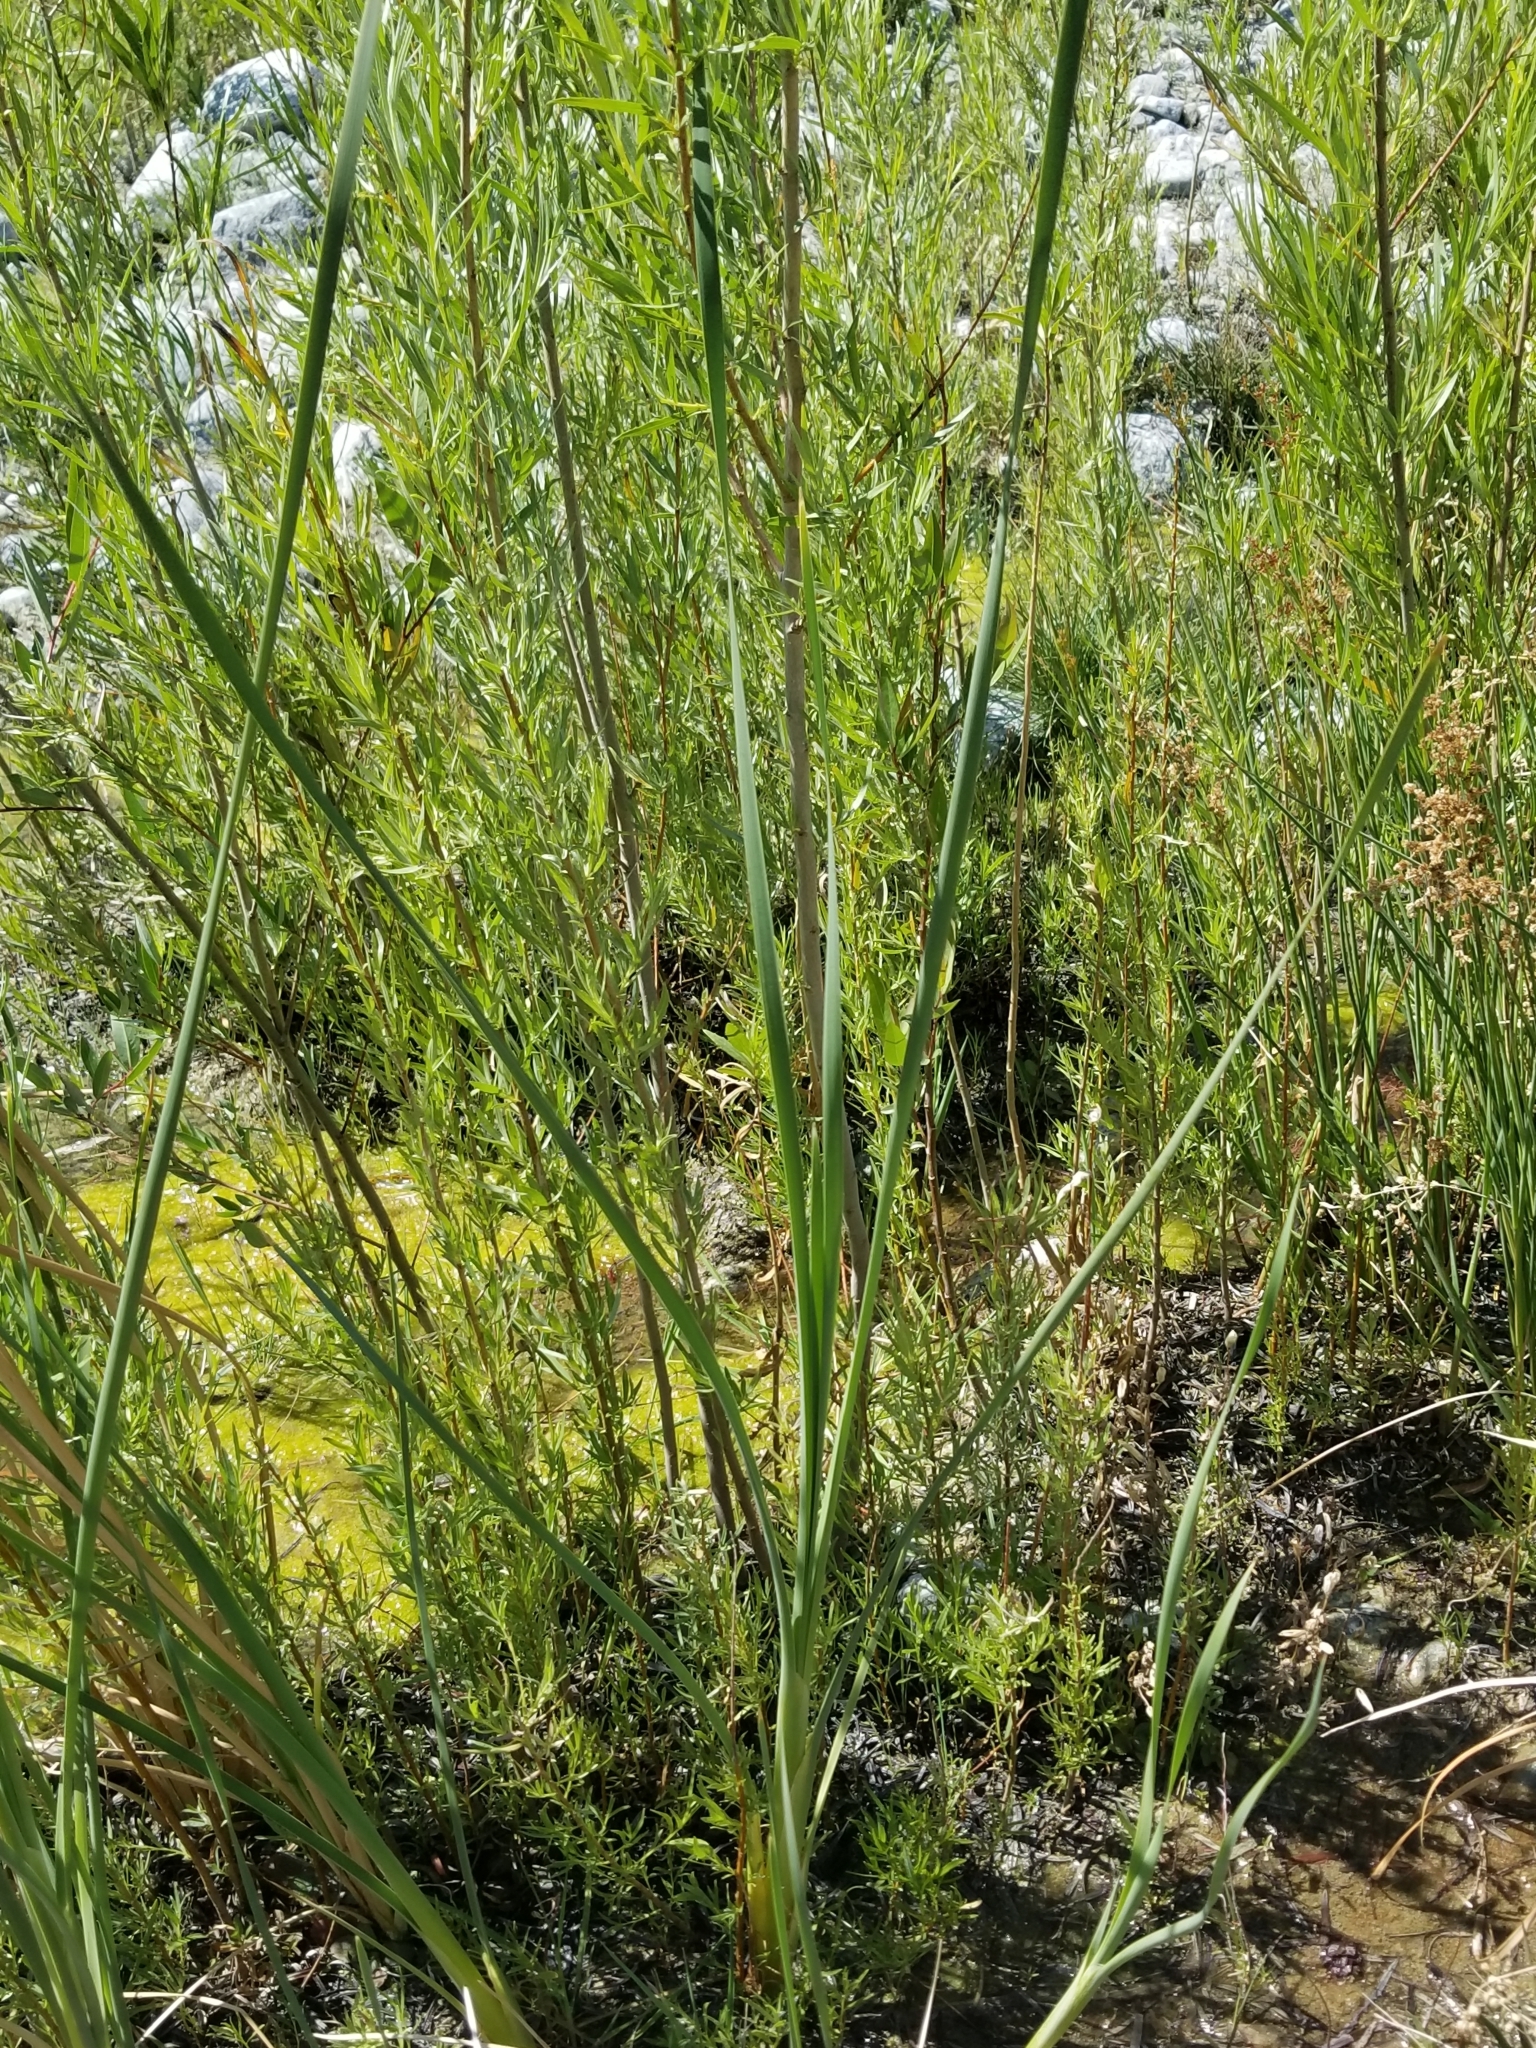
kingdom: Plantae
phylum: Tracheophyta
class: Liliopsida
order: Poales
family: Typhaceae
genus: Typha
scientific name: Typha domingensis
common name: Southern cattail
